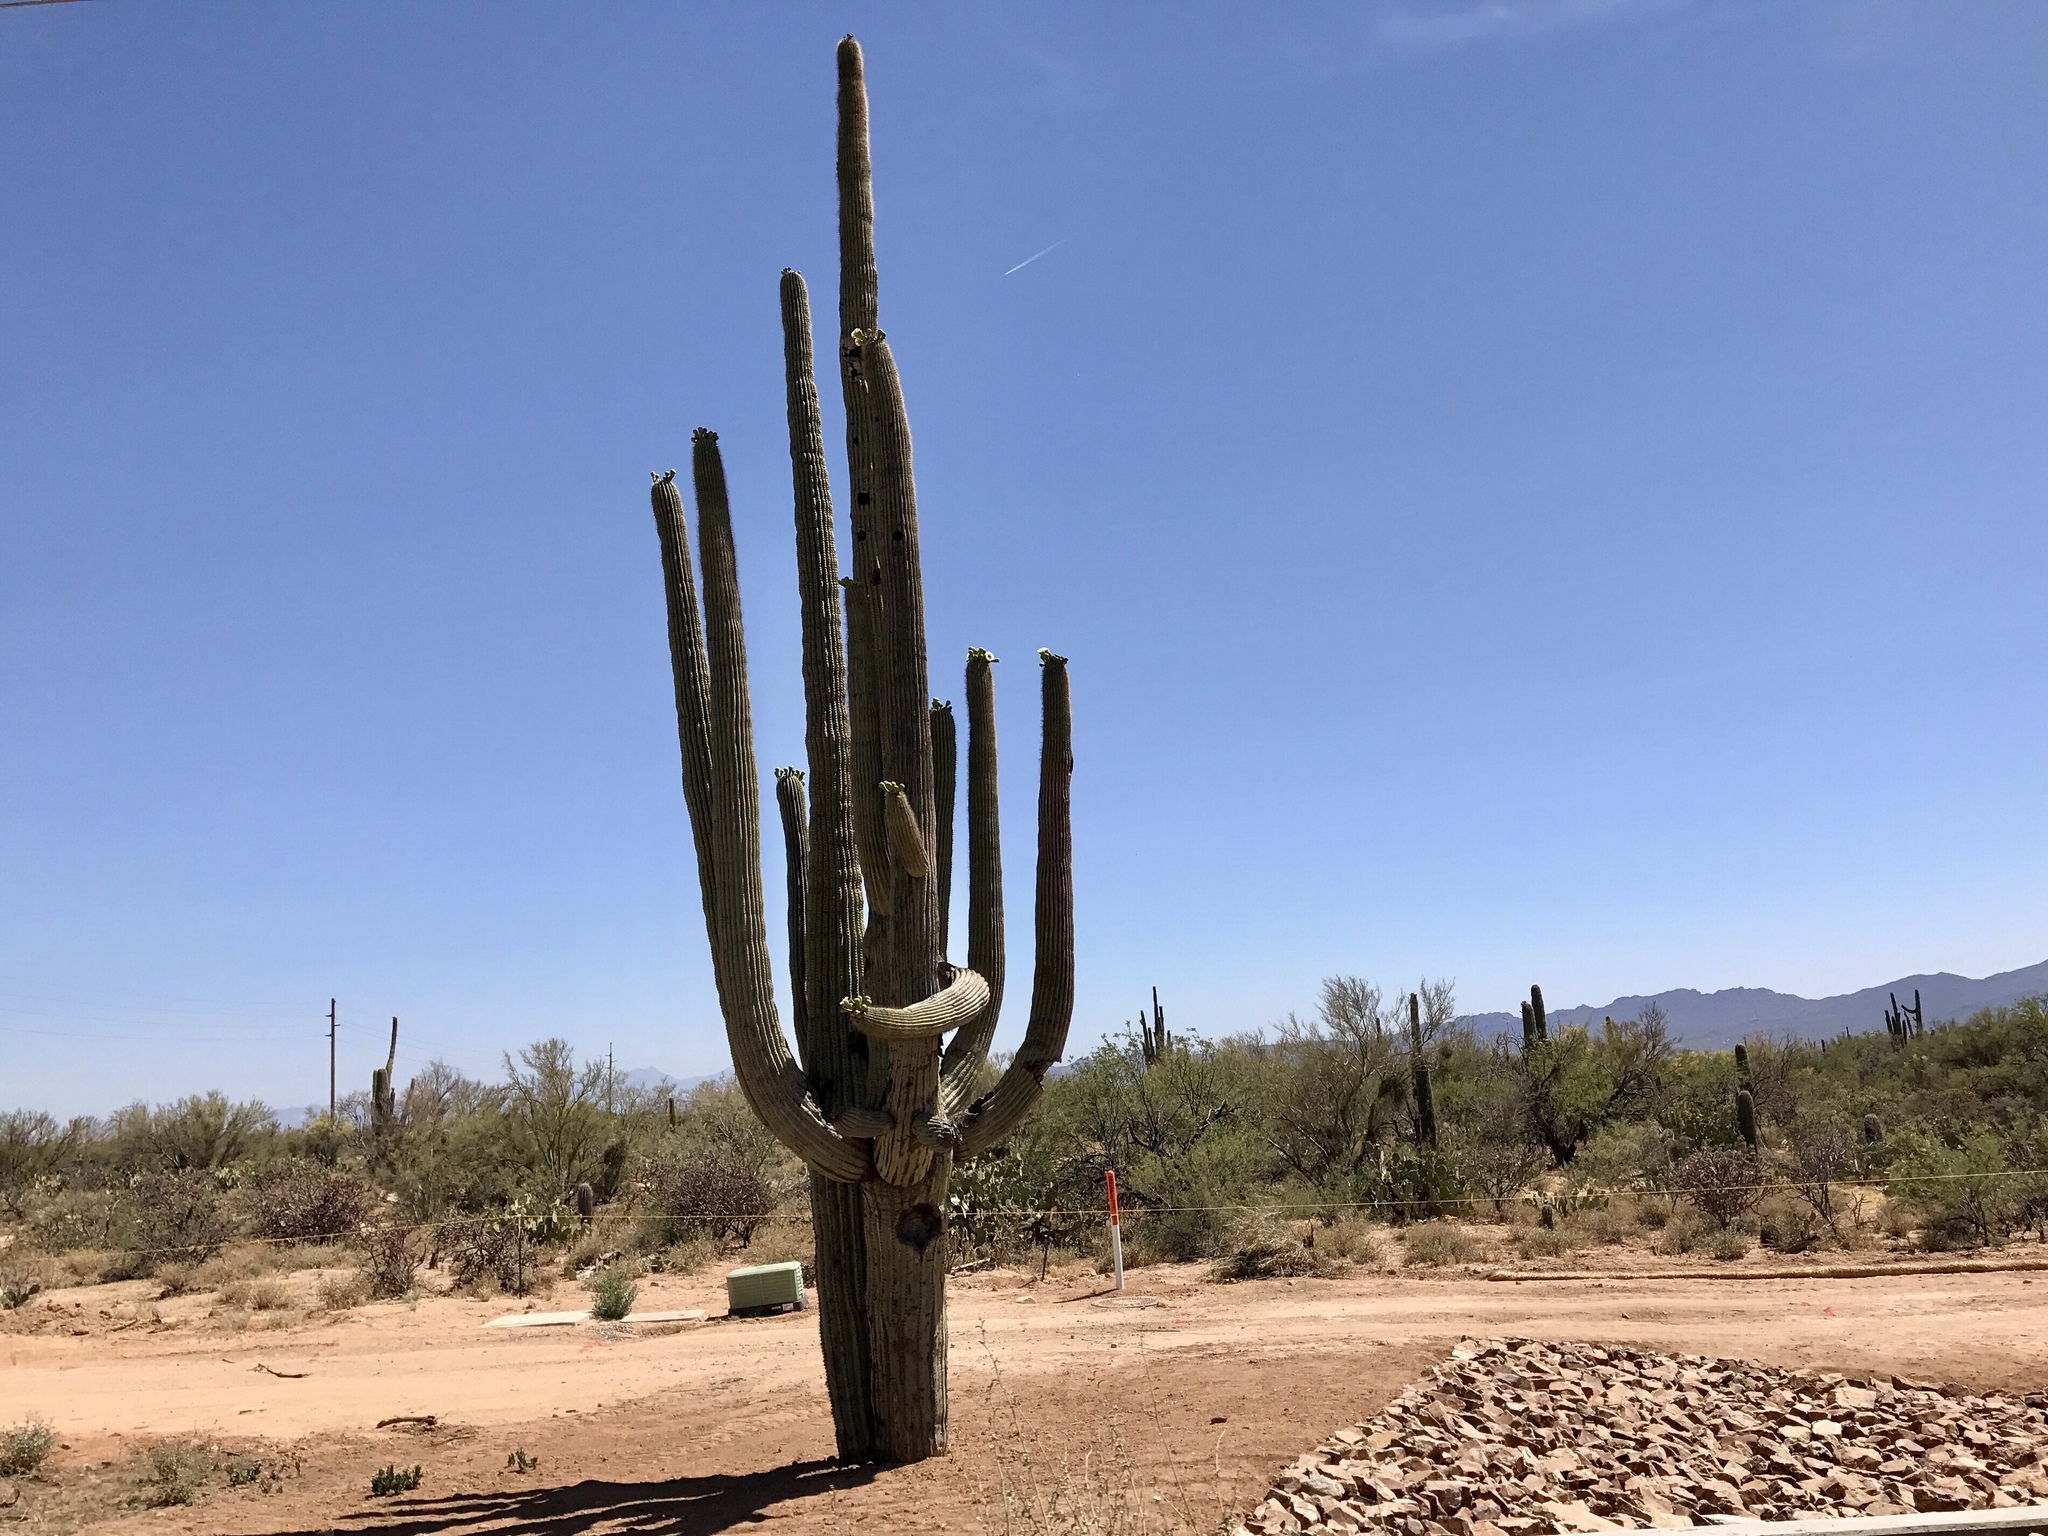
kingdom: Plantae
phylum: Tracheophyta
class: Magnoliopsida
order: Caryophyllales
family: Cactaceae
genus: Carnegiea
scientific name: Carnegiea gigantea
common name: Saguaro
